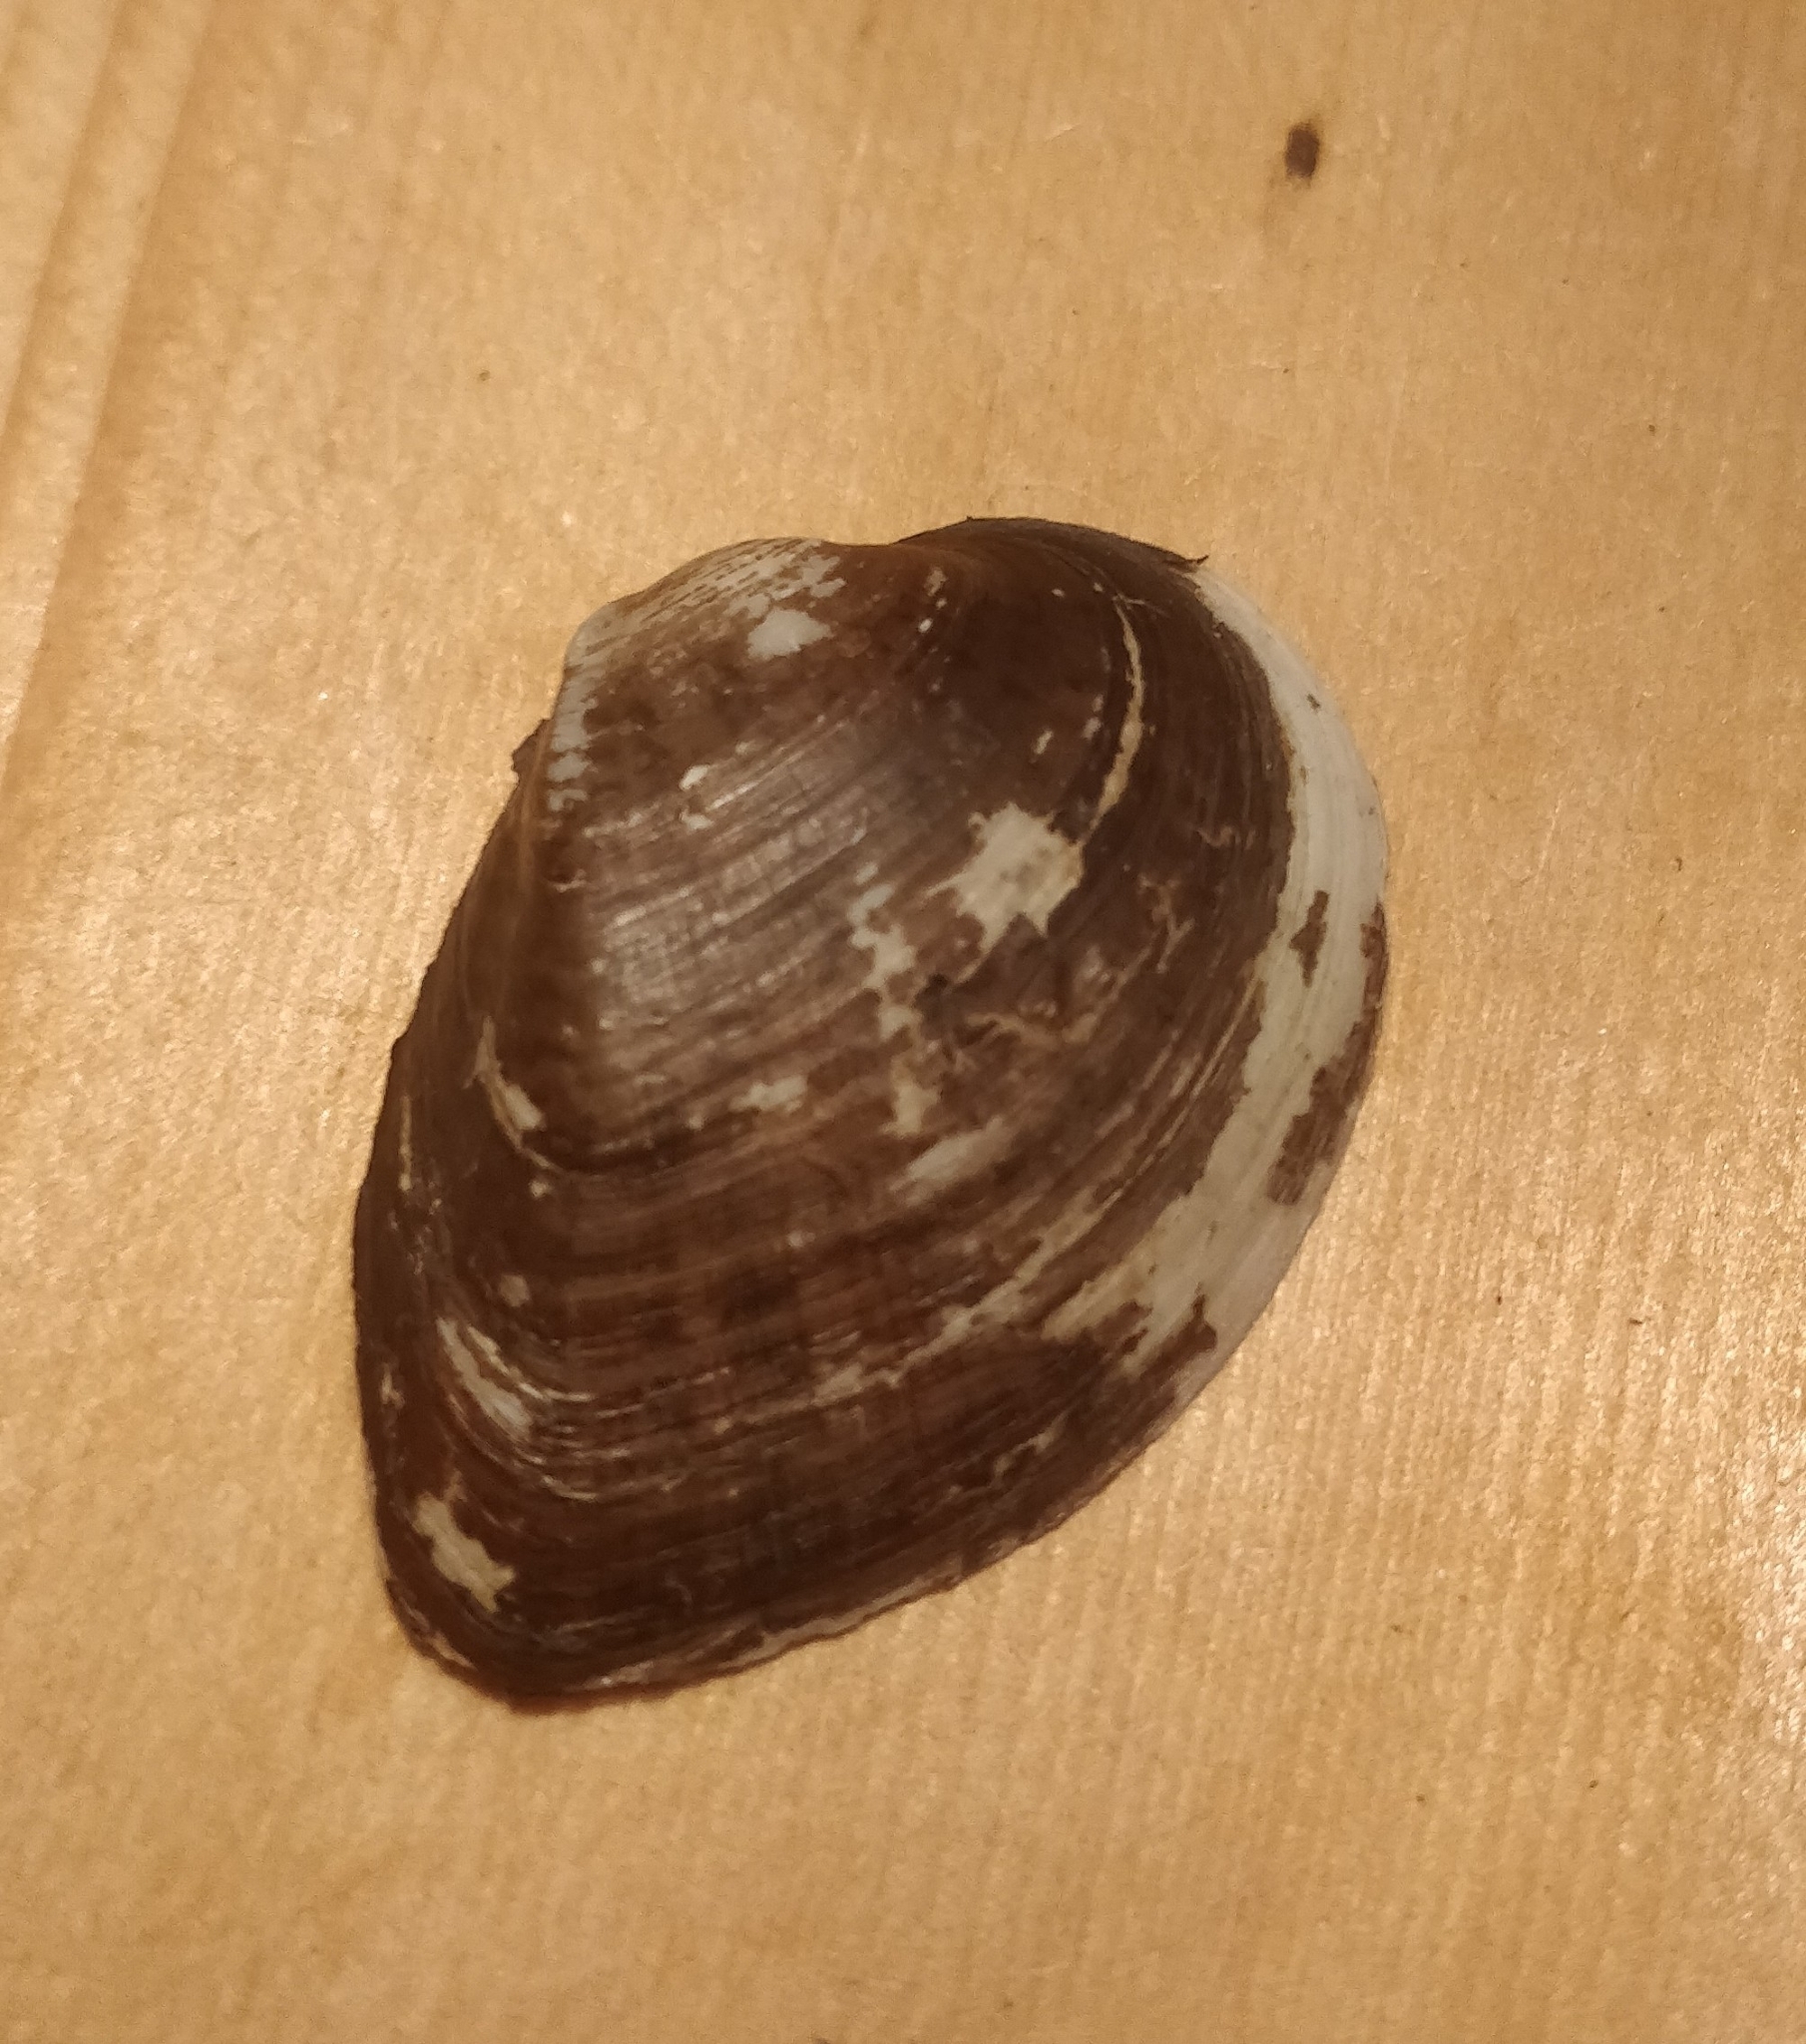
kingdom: Animalia
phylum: Mollusca
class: Bivalvia
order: Unionida
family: Unionidae
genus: Truncilla
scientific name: Truncilla truncata
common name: Deertoe
